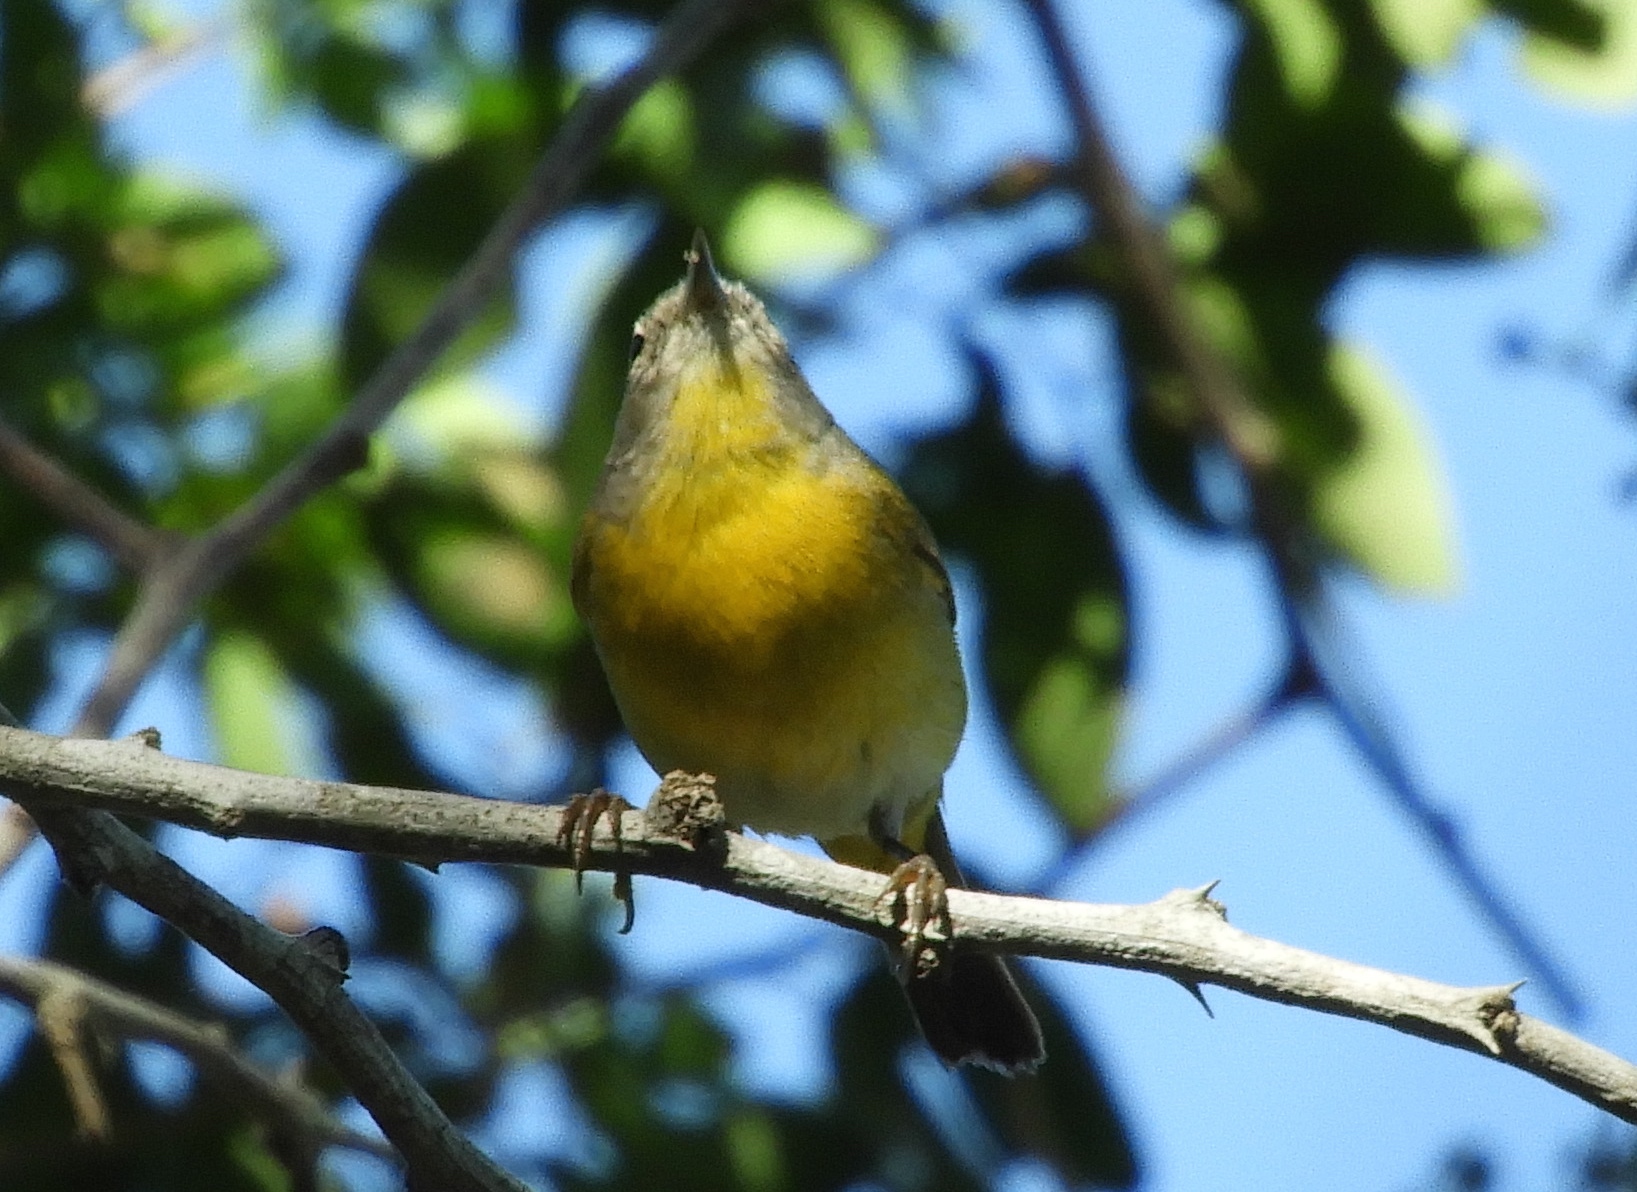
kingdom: Animalia
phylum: Chordata
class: Aves
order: Passeriformes
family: Parulidae
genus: Leiothlypis
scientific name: Leiothlypis ruficapilla
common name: Nashville warbler
